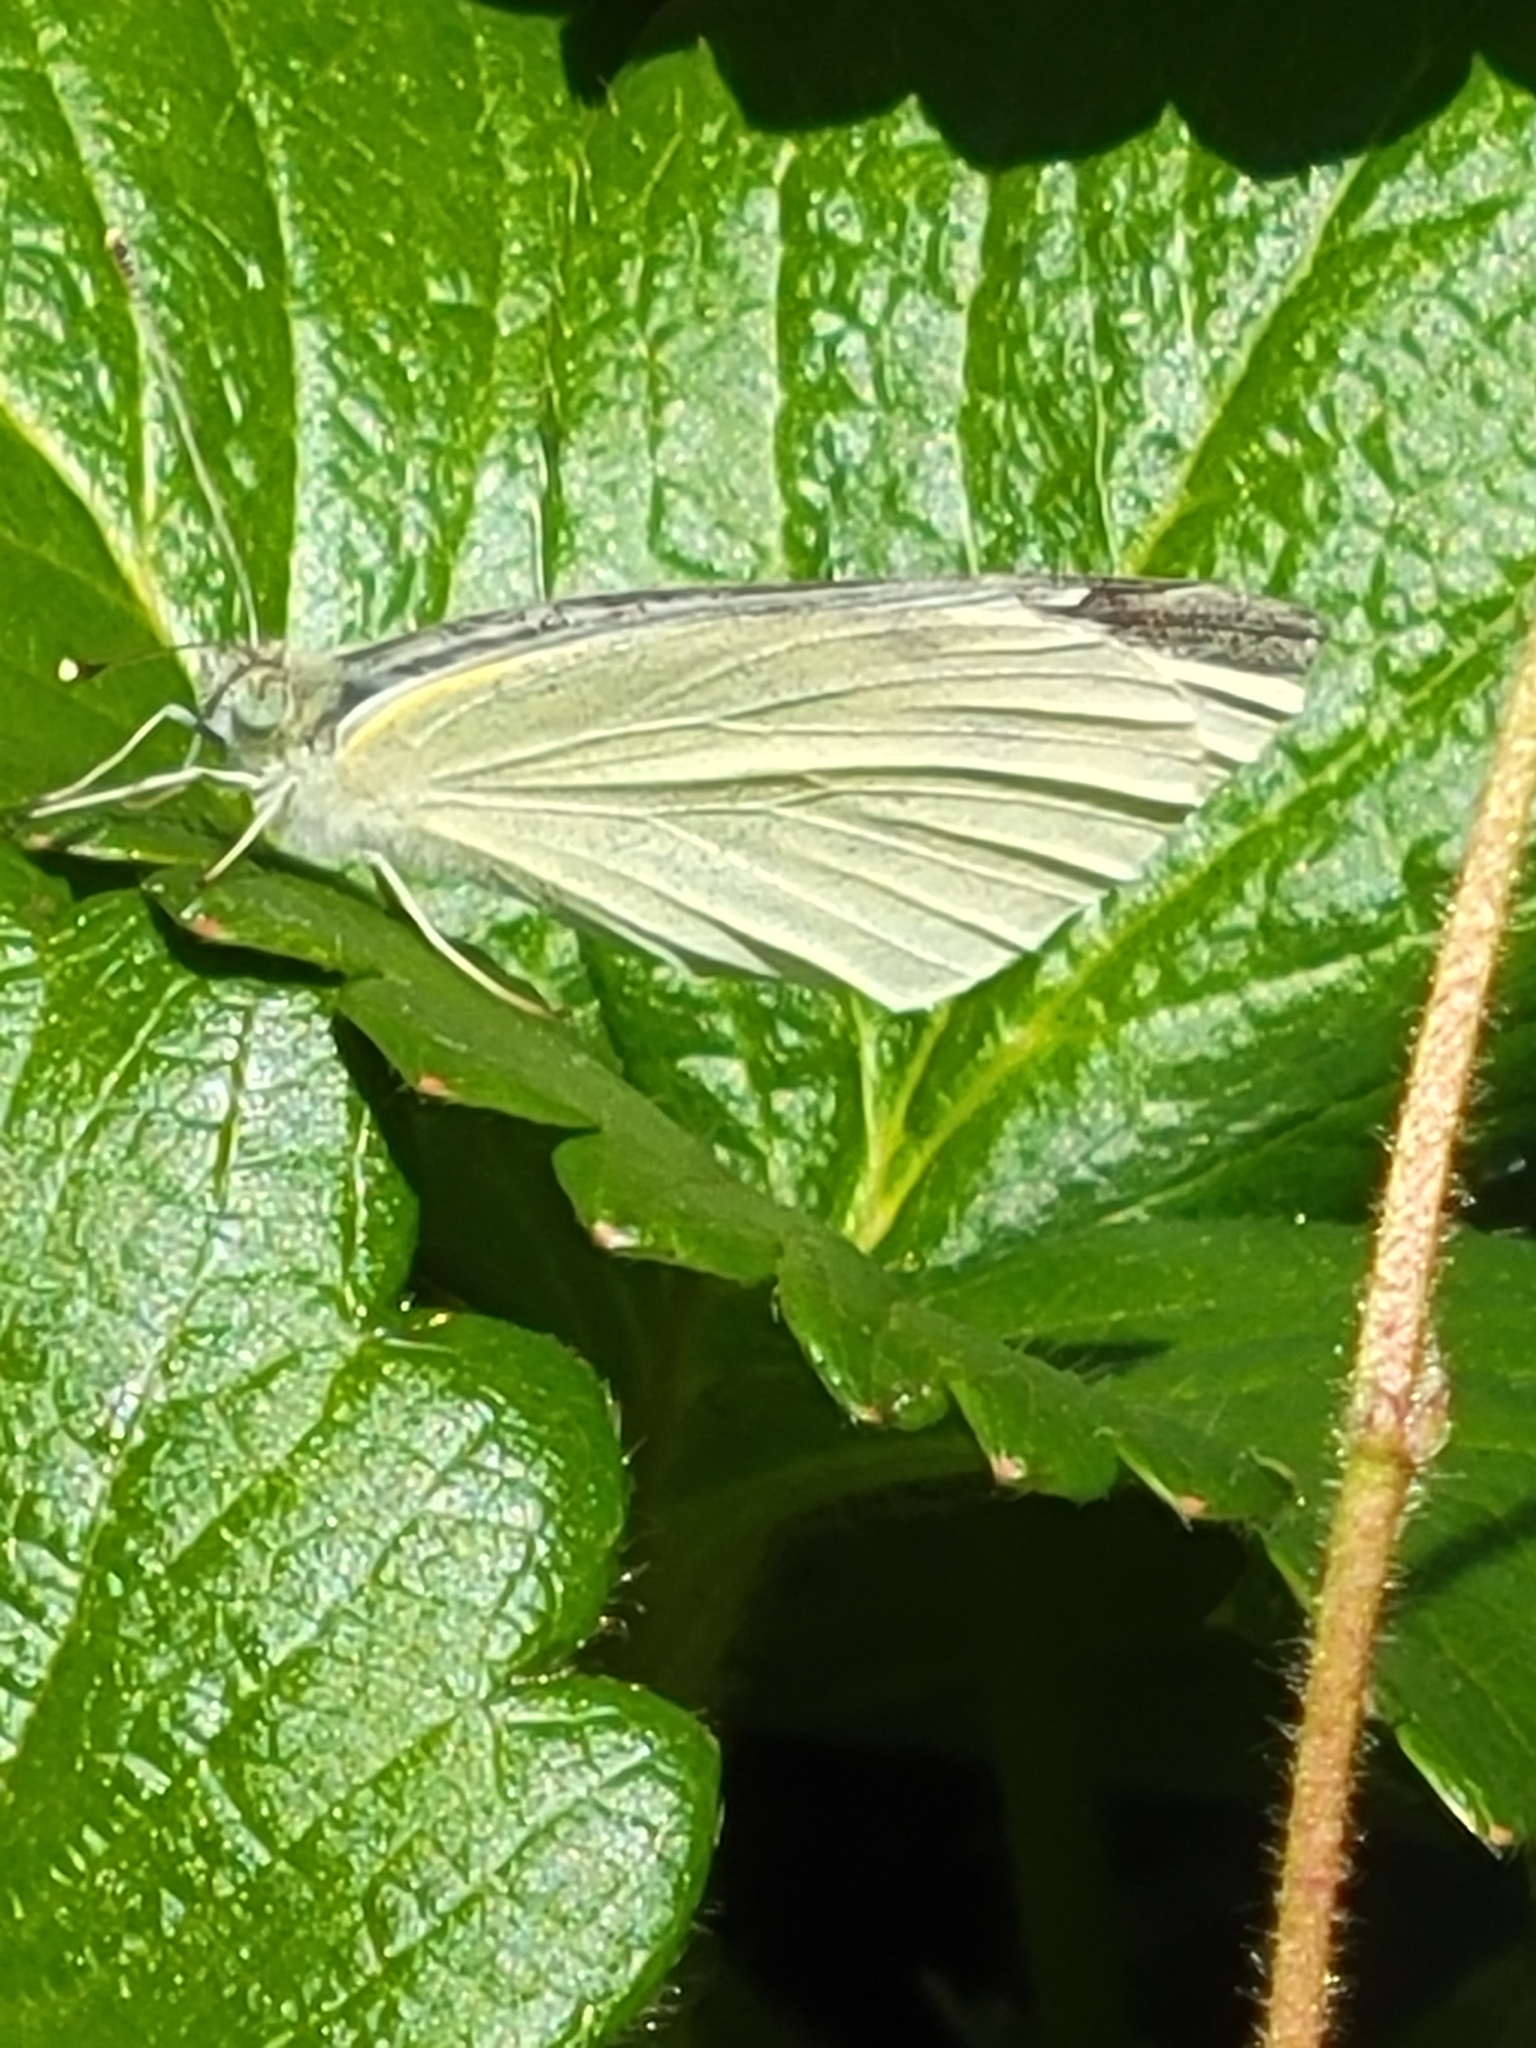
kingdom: Animalia
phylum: Arthropoda
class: Insecta
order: Lepidoptera
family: Pieridae
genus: Pieris
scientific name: Pieris rapae
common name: Small white
